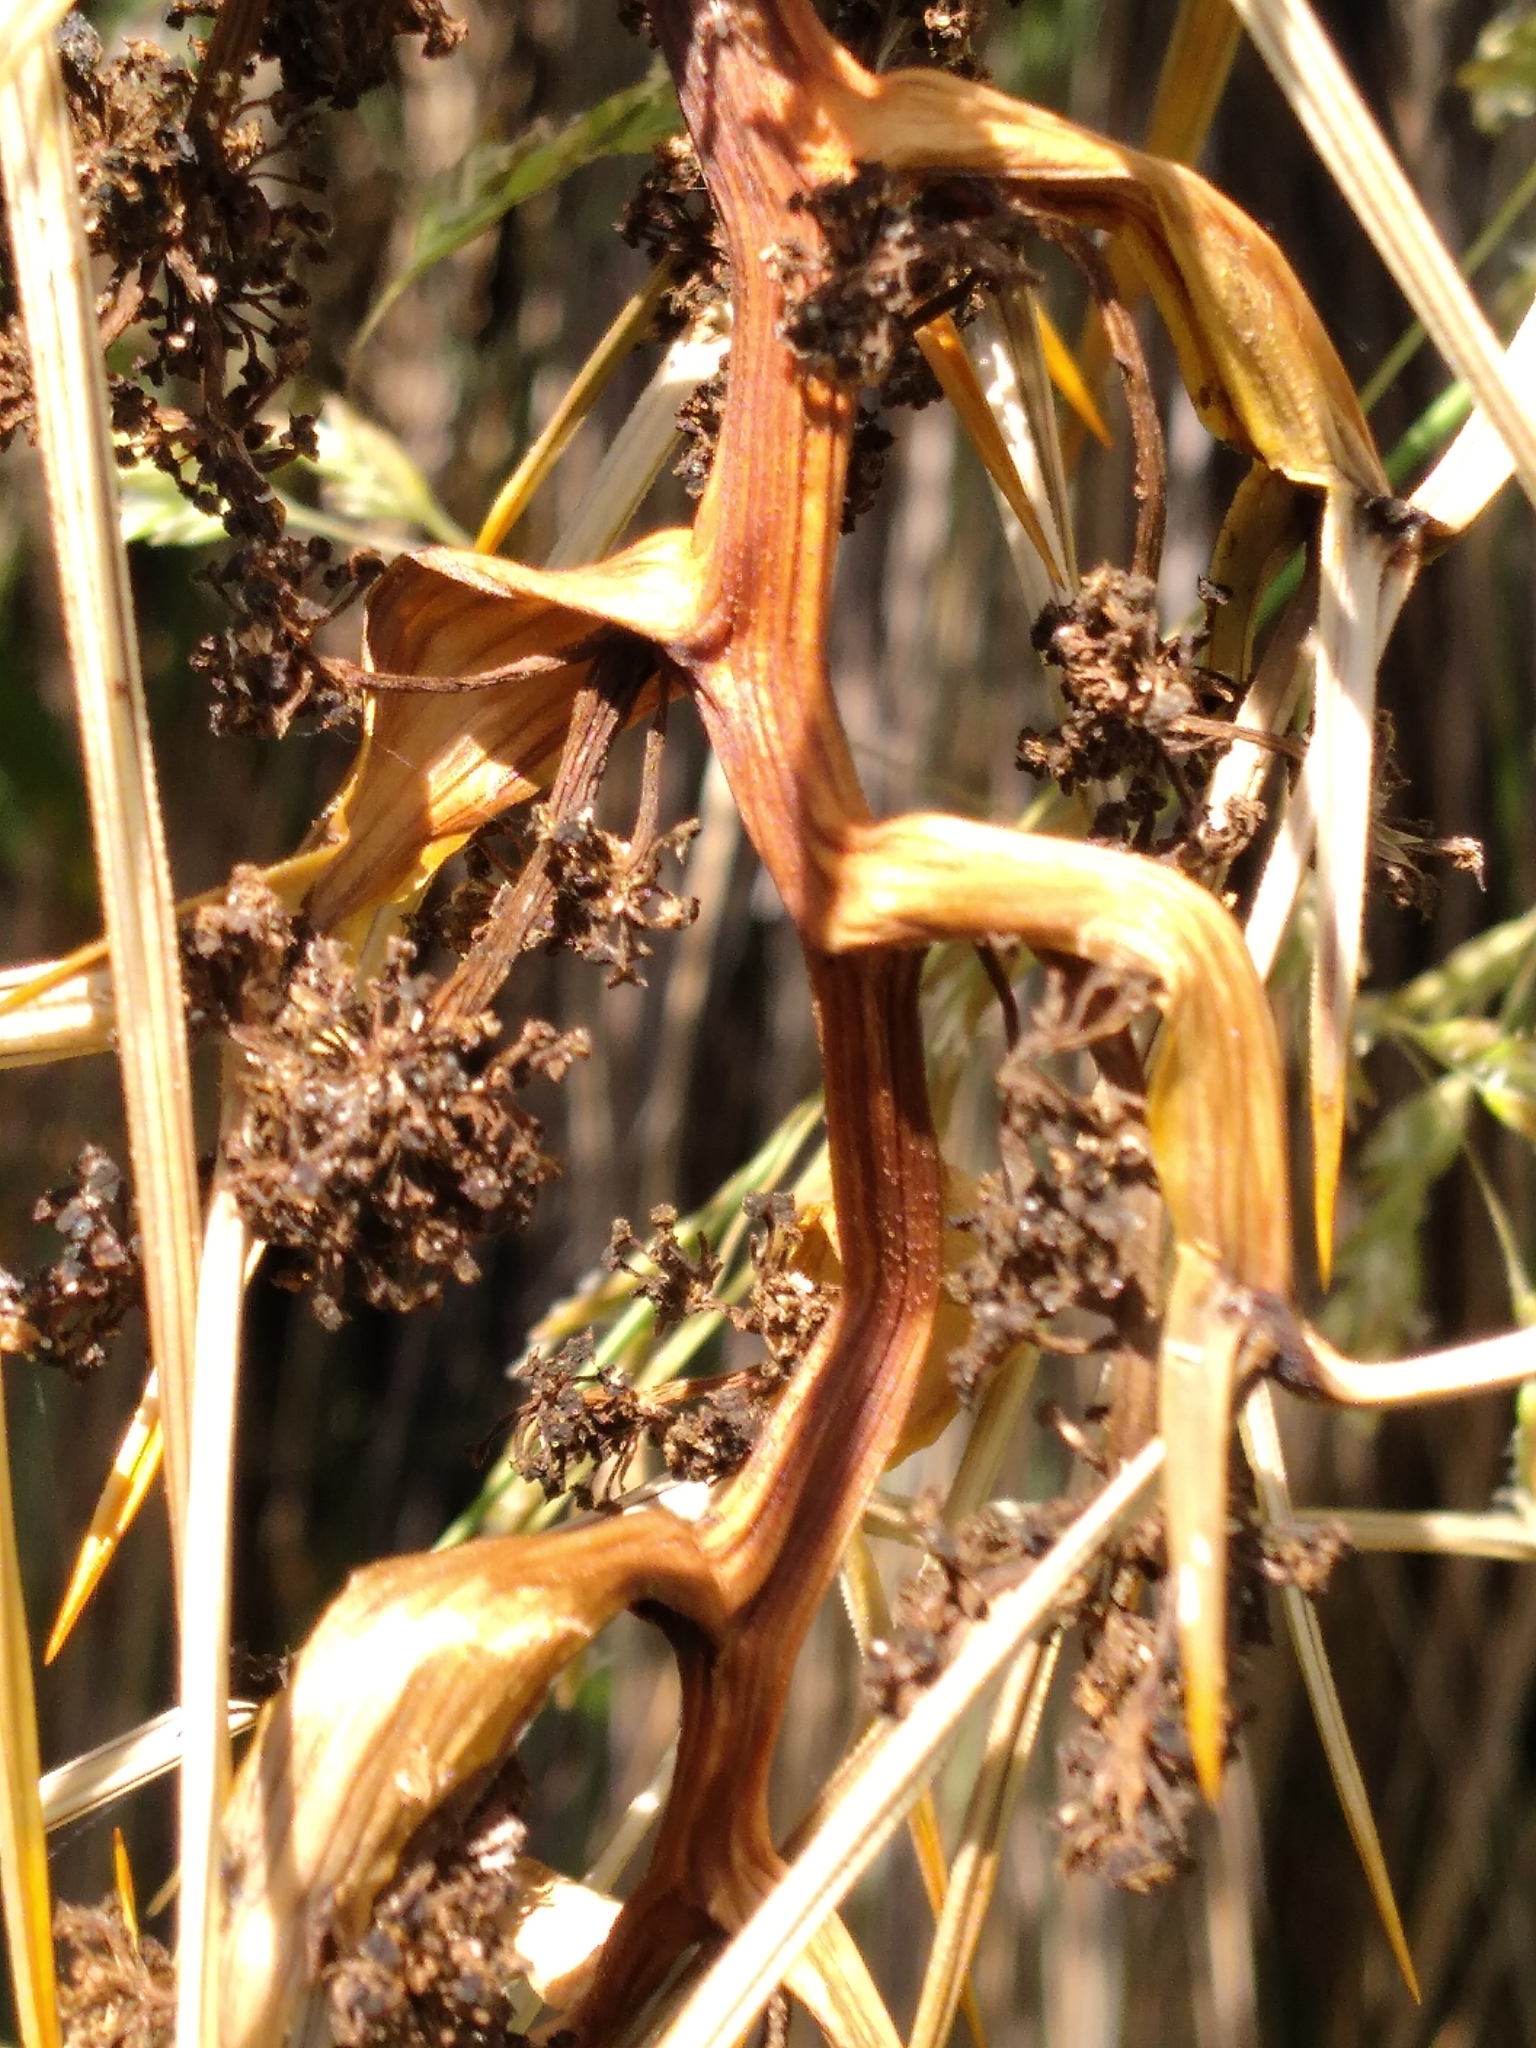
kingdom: Plantae
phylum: Tracheophyta
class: Magnoliopsida
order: Apiales
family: Apiaceae
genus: Aciphylla
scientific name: Aciphylla squarrosa
